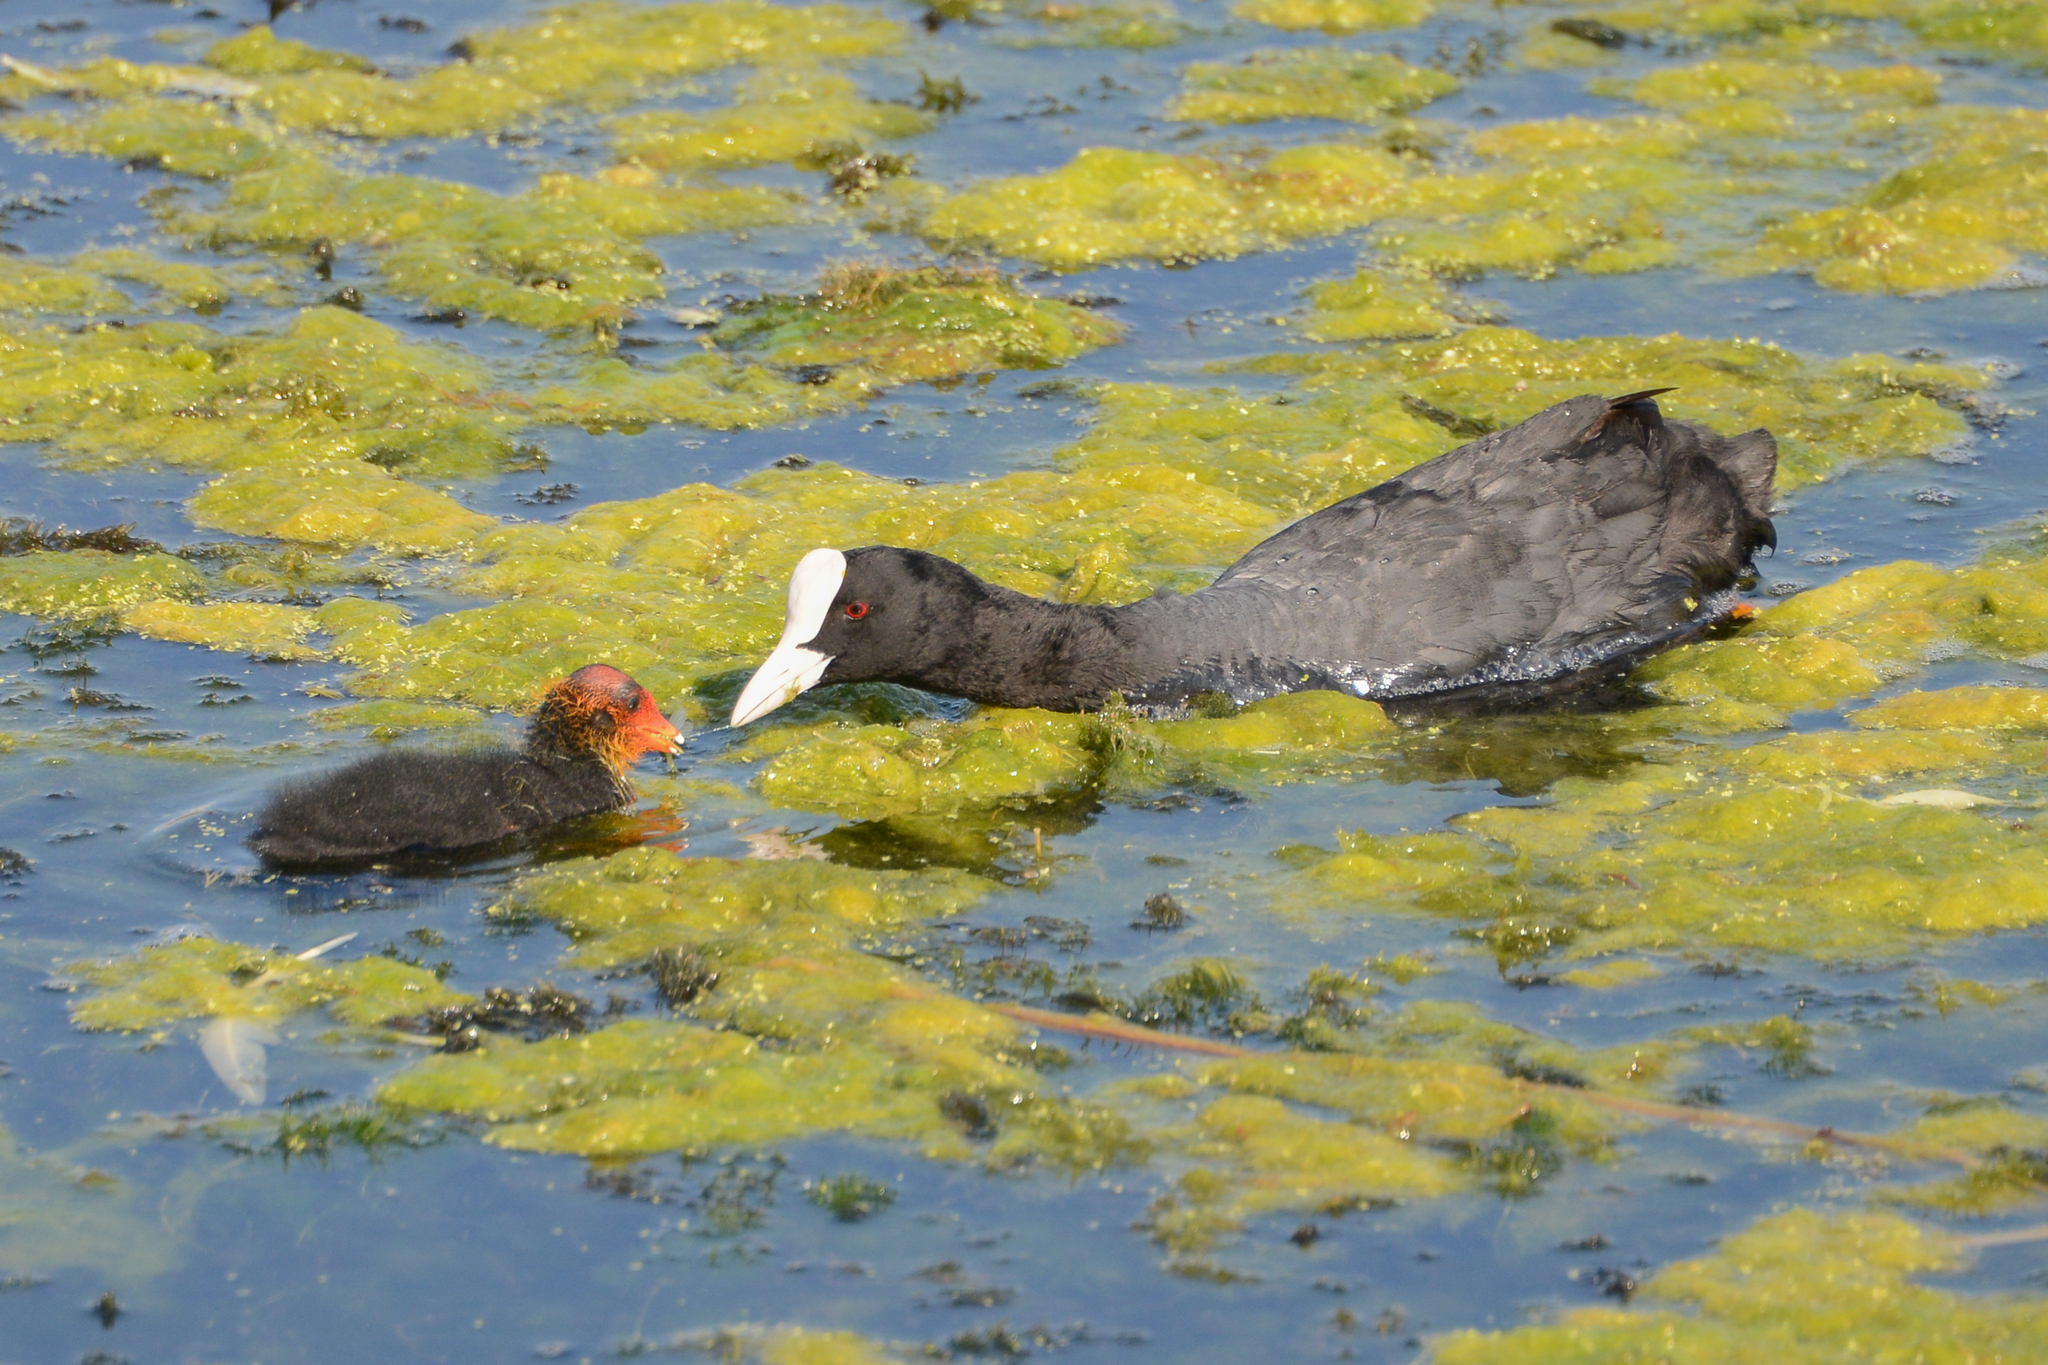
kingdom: Animalia
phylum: Chordata
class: Aves
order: Gruiformes
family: Rallidae
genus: Fulica
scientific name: Fulica atra
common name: Eurasian coot
